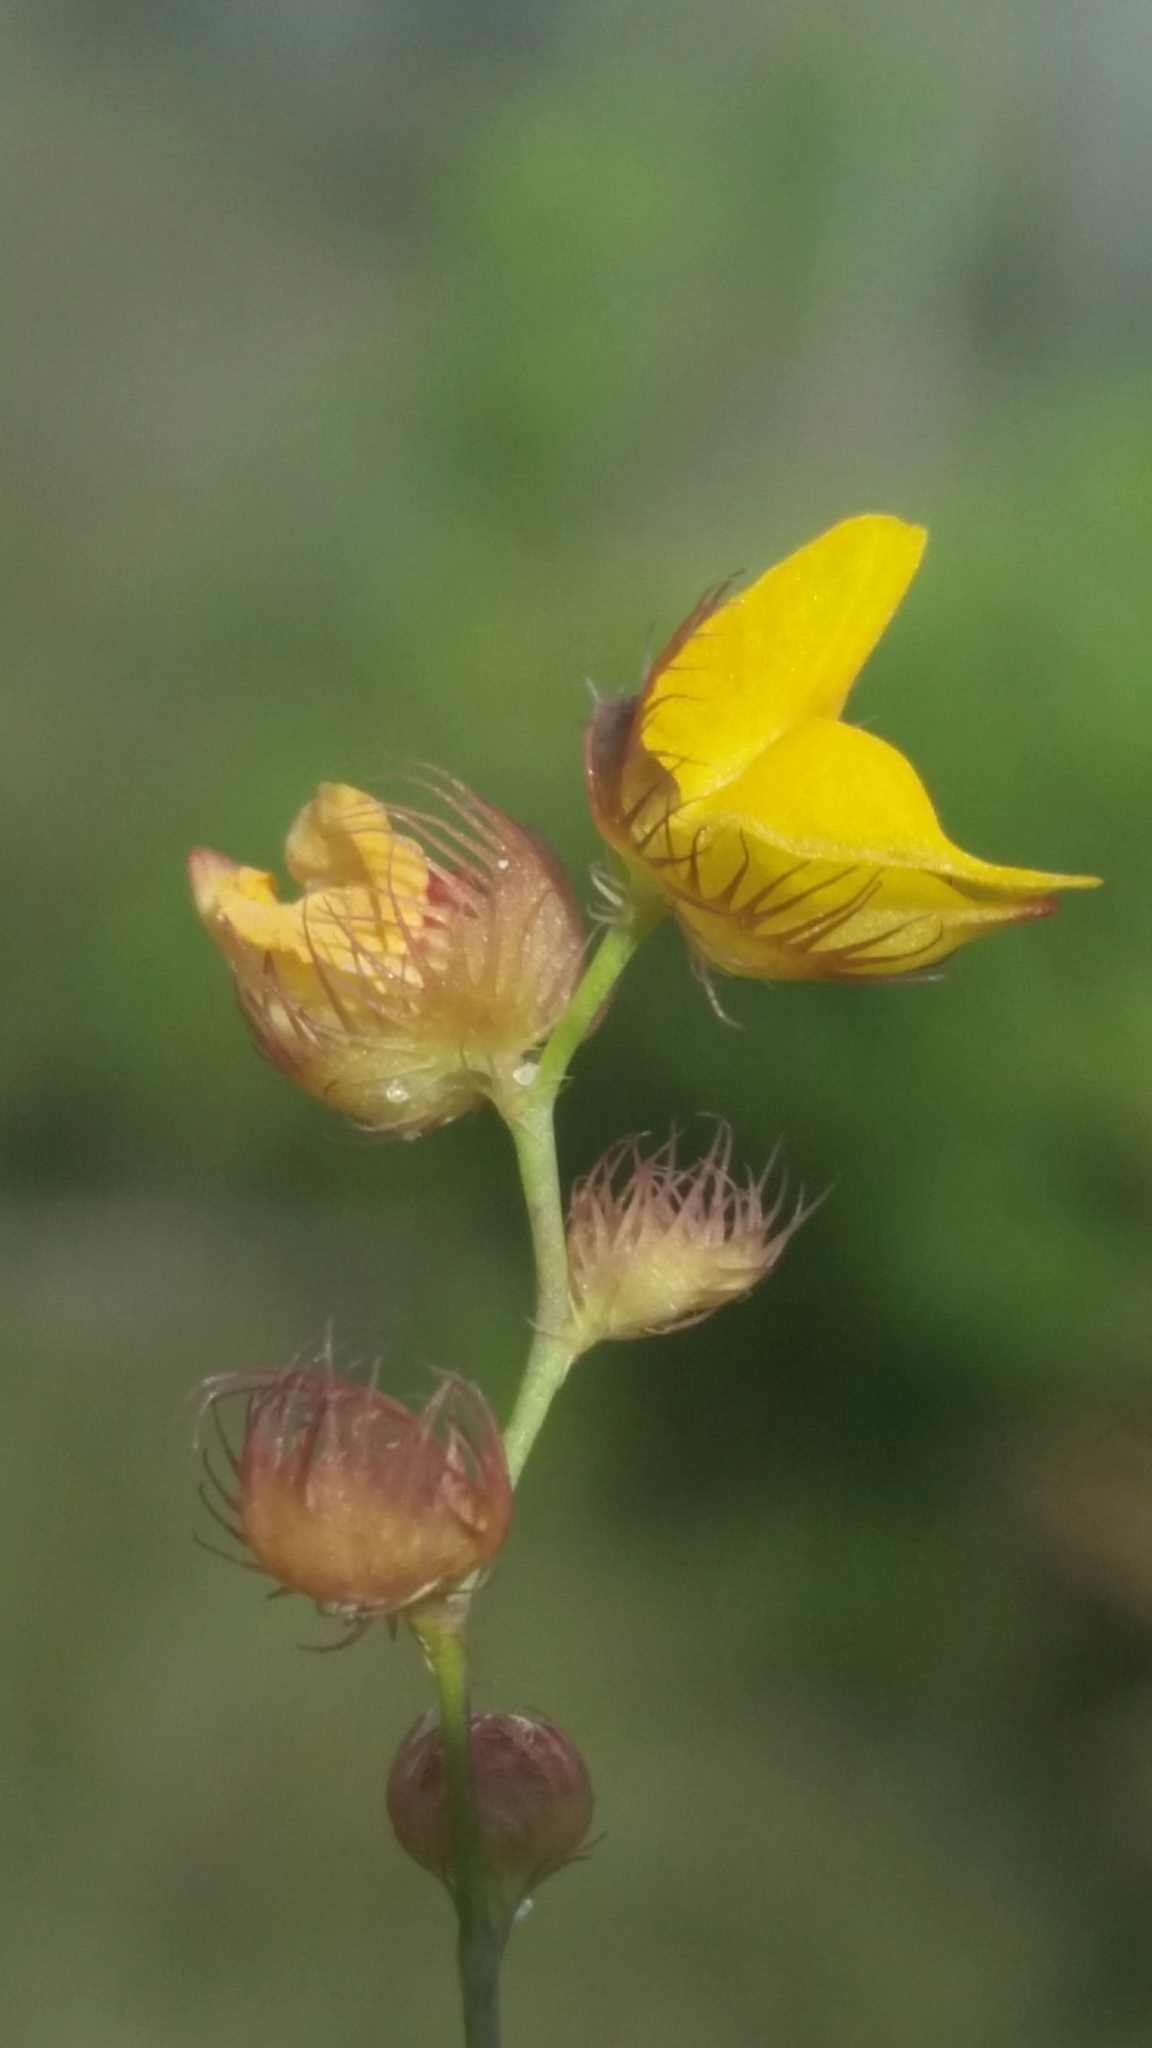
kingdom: Plantae
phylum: Tracheophyta
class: Magnoliopsida
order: Lamiales
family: Lentibulariaceae
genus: Utricularia
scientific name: Utricularia simulans
